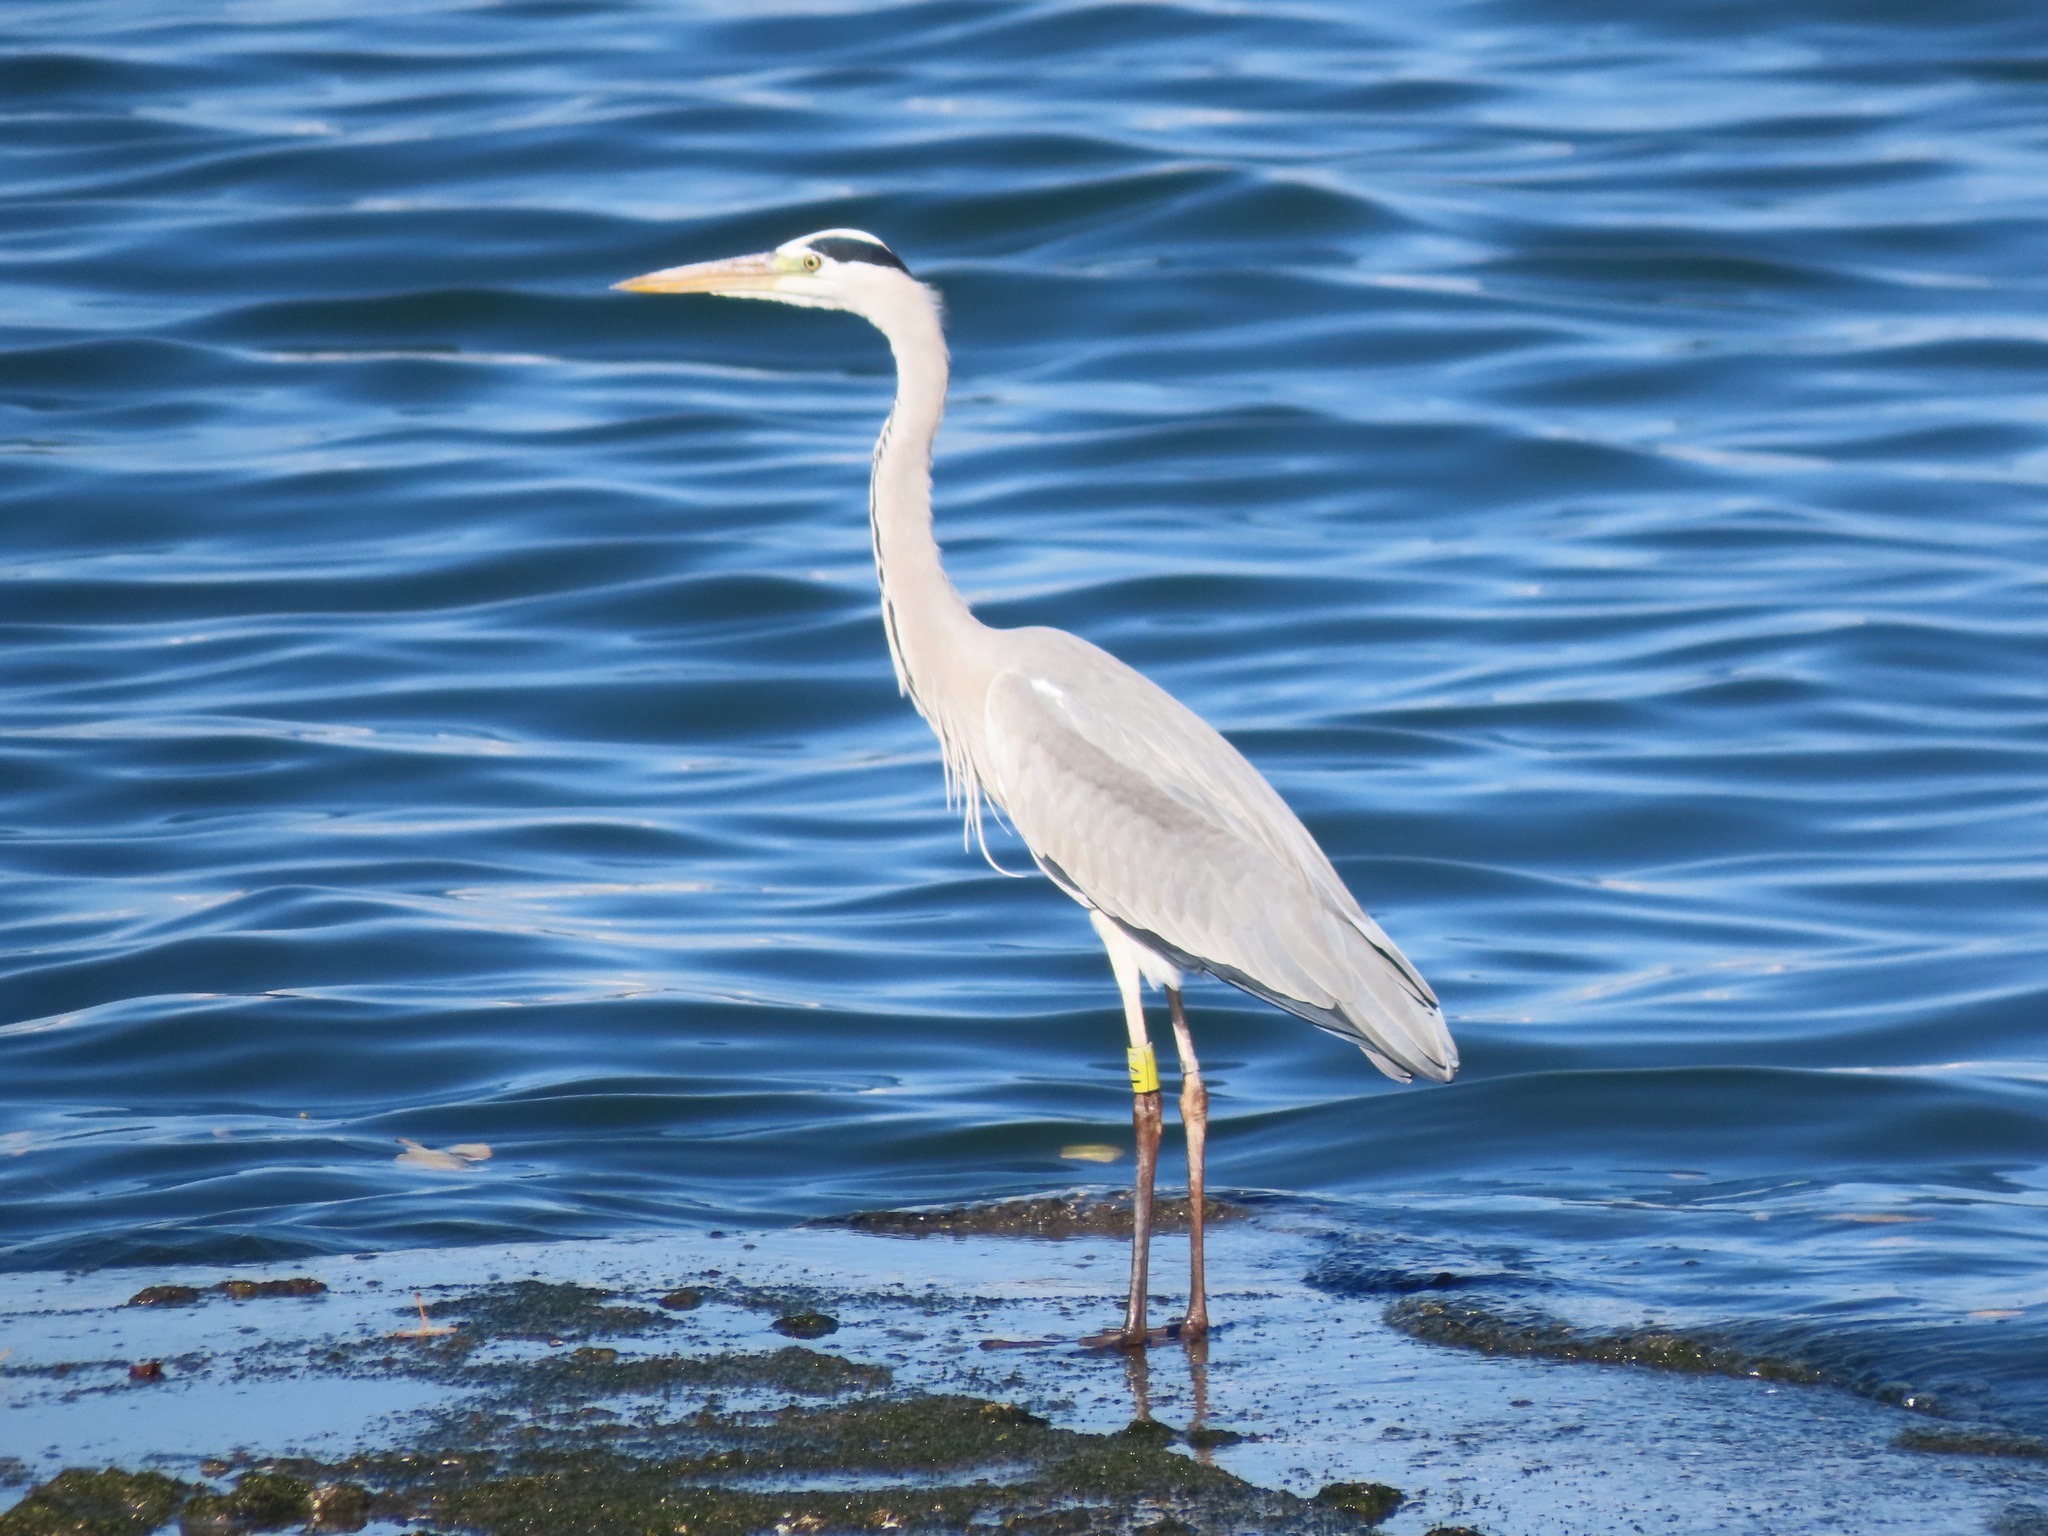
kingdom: Animalia
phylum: Chordata
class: Aves
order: Pelecaniformes
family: Ardeidae
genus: Ardea
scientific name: Ardea cinerea
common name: Grey heron
